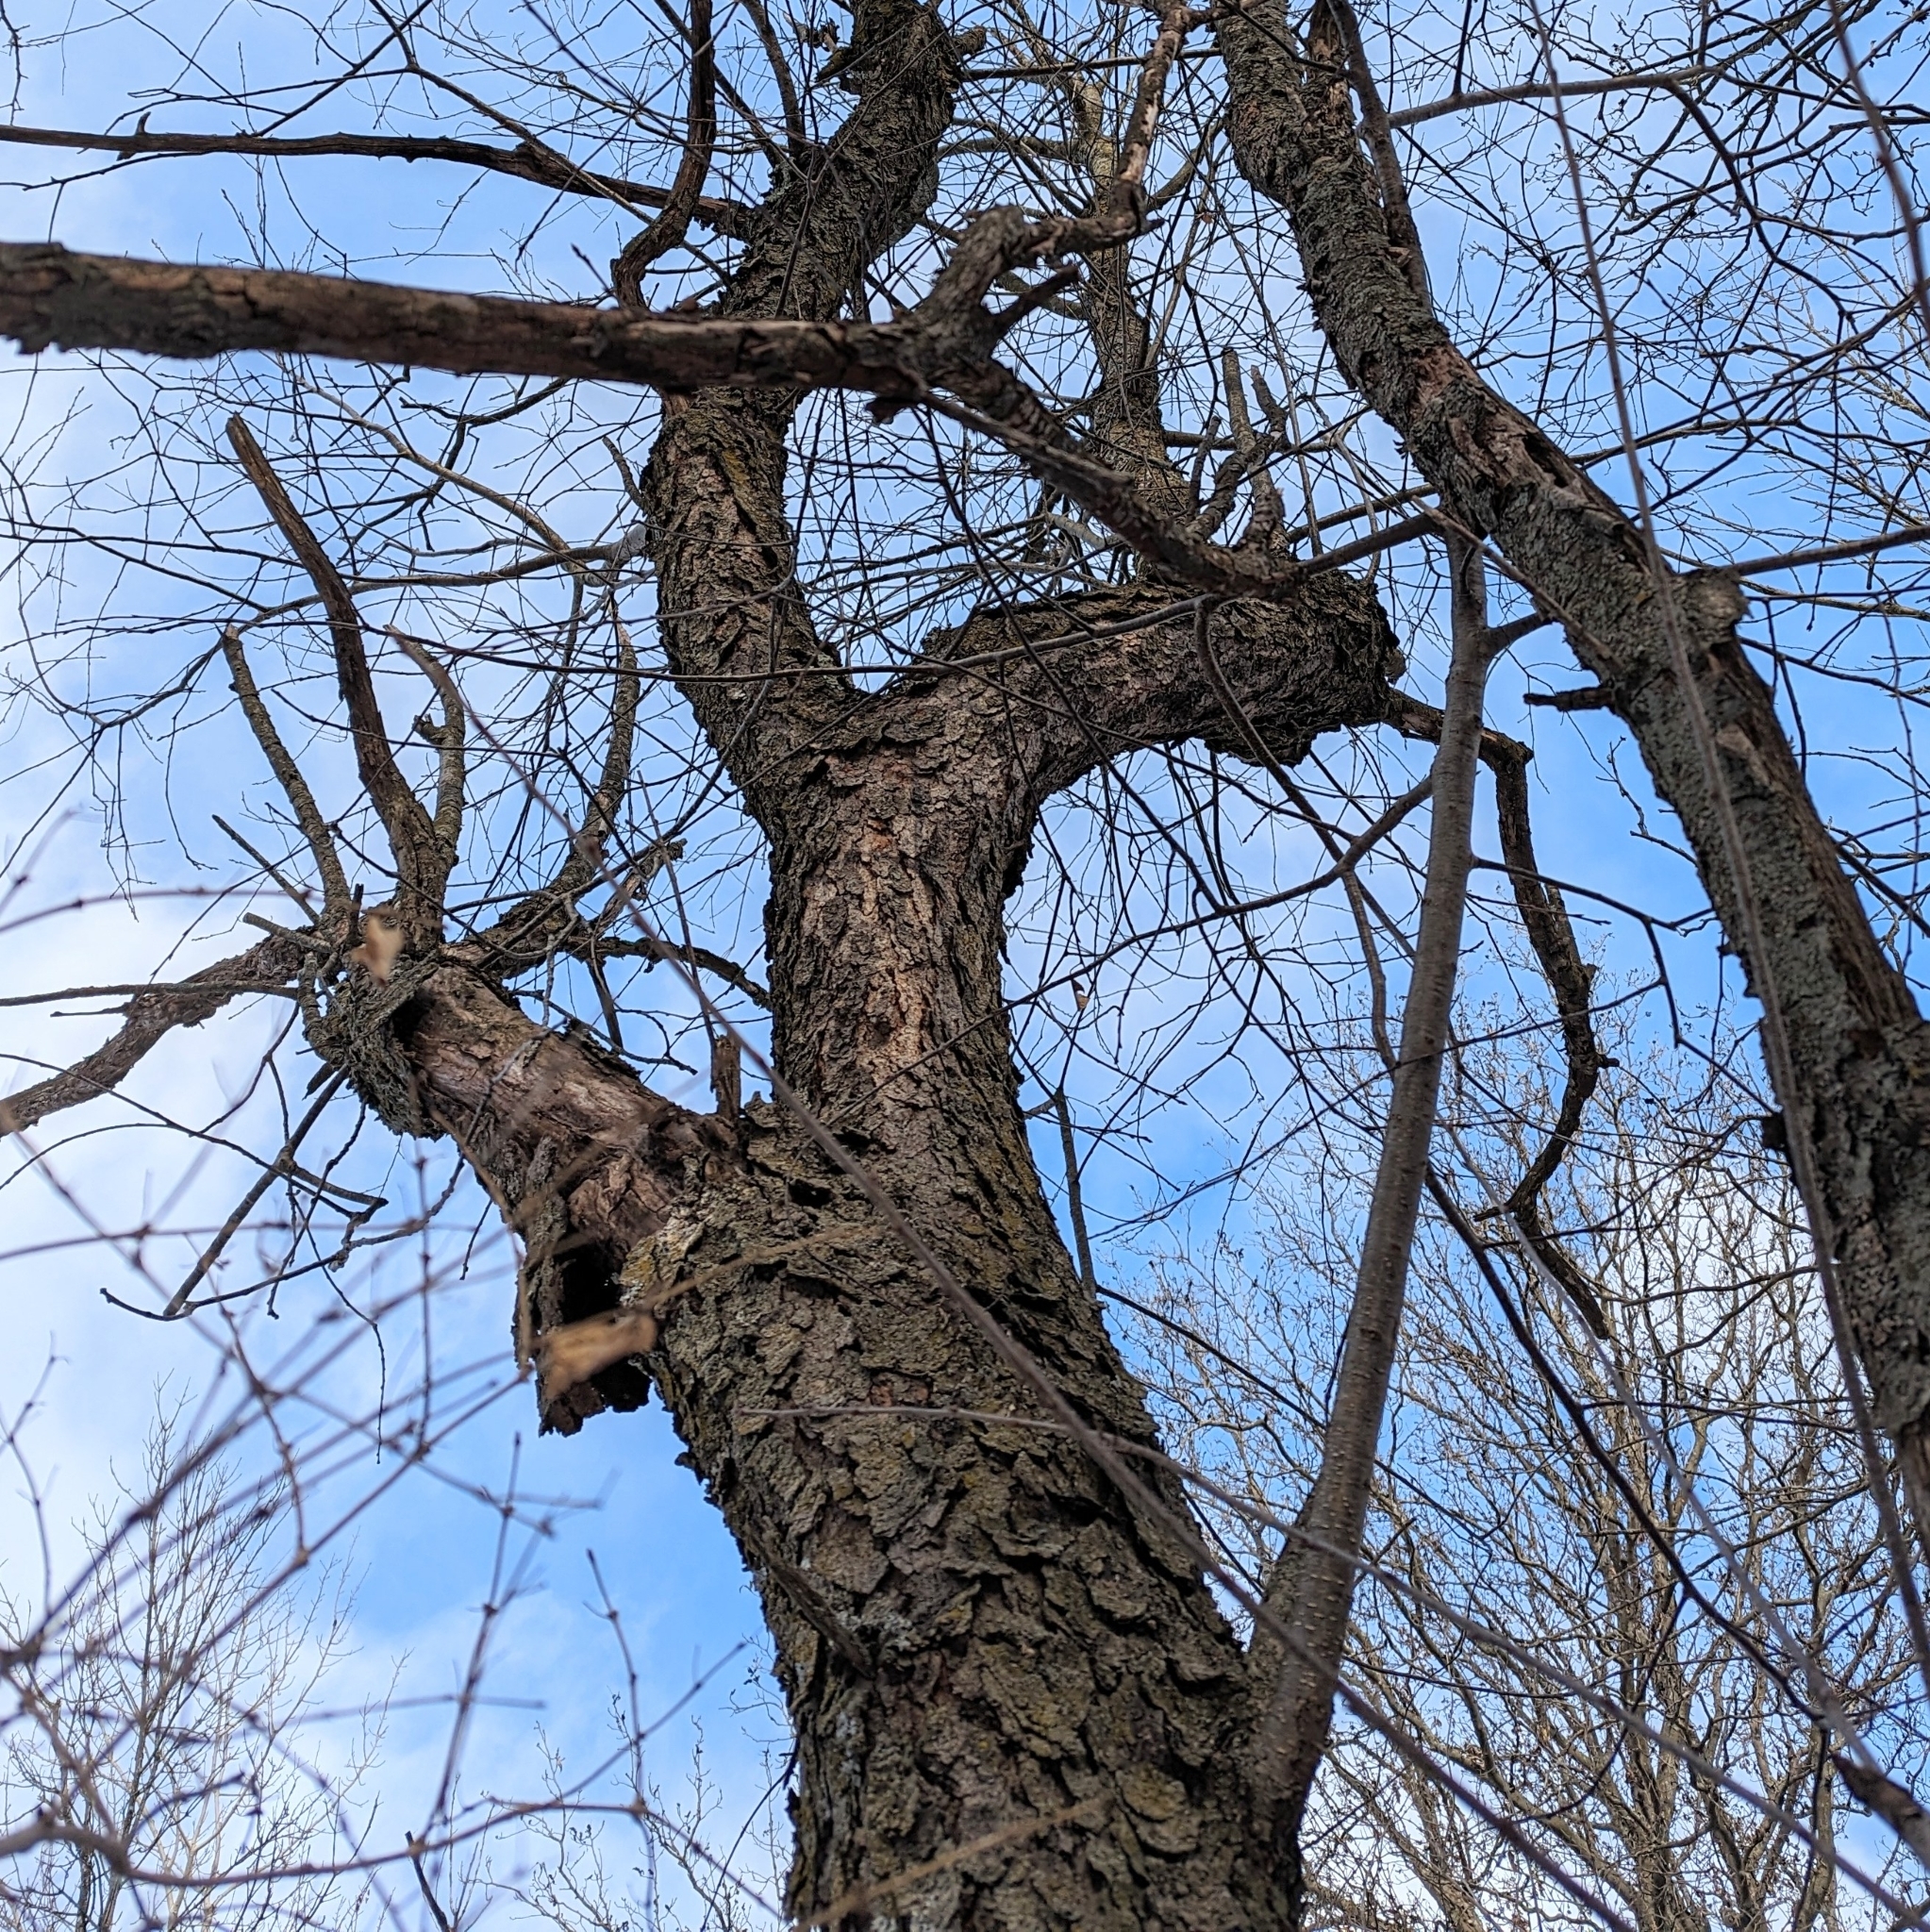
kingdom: Plantae
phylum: Tracheophyta
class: Magnoliopsida
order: Rosales
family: Rosaceae
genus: Prunus
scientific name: Prunus serotina
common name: Black cherry
